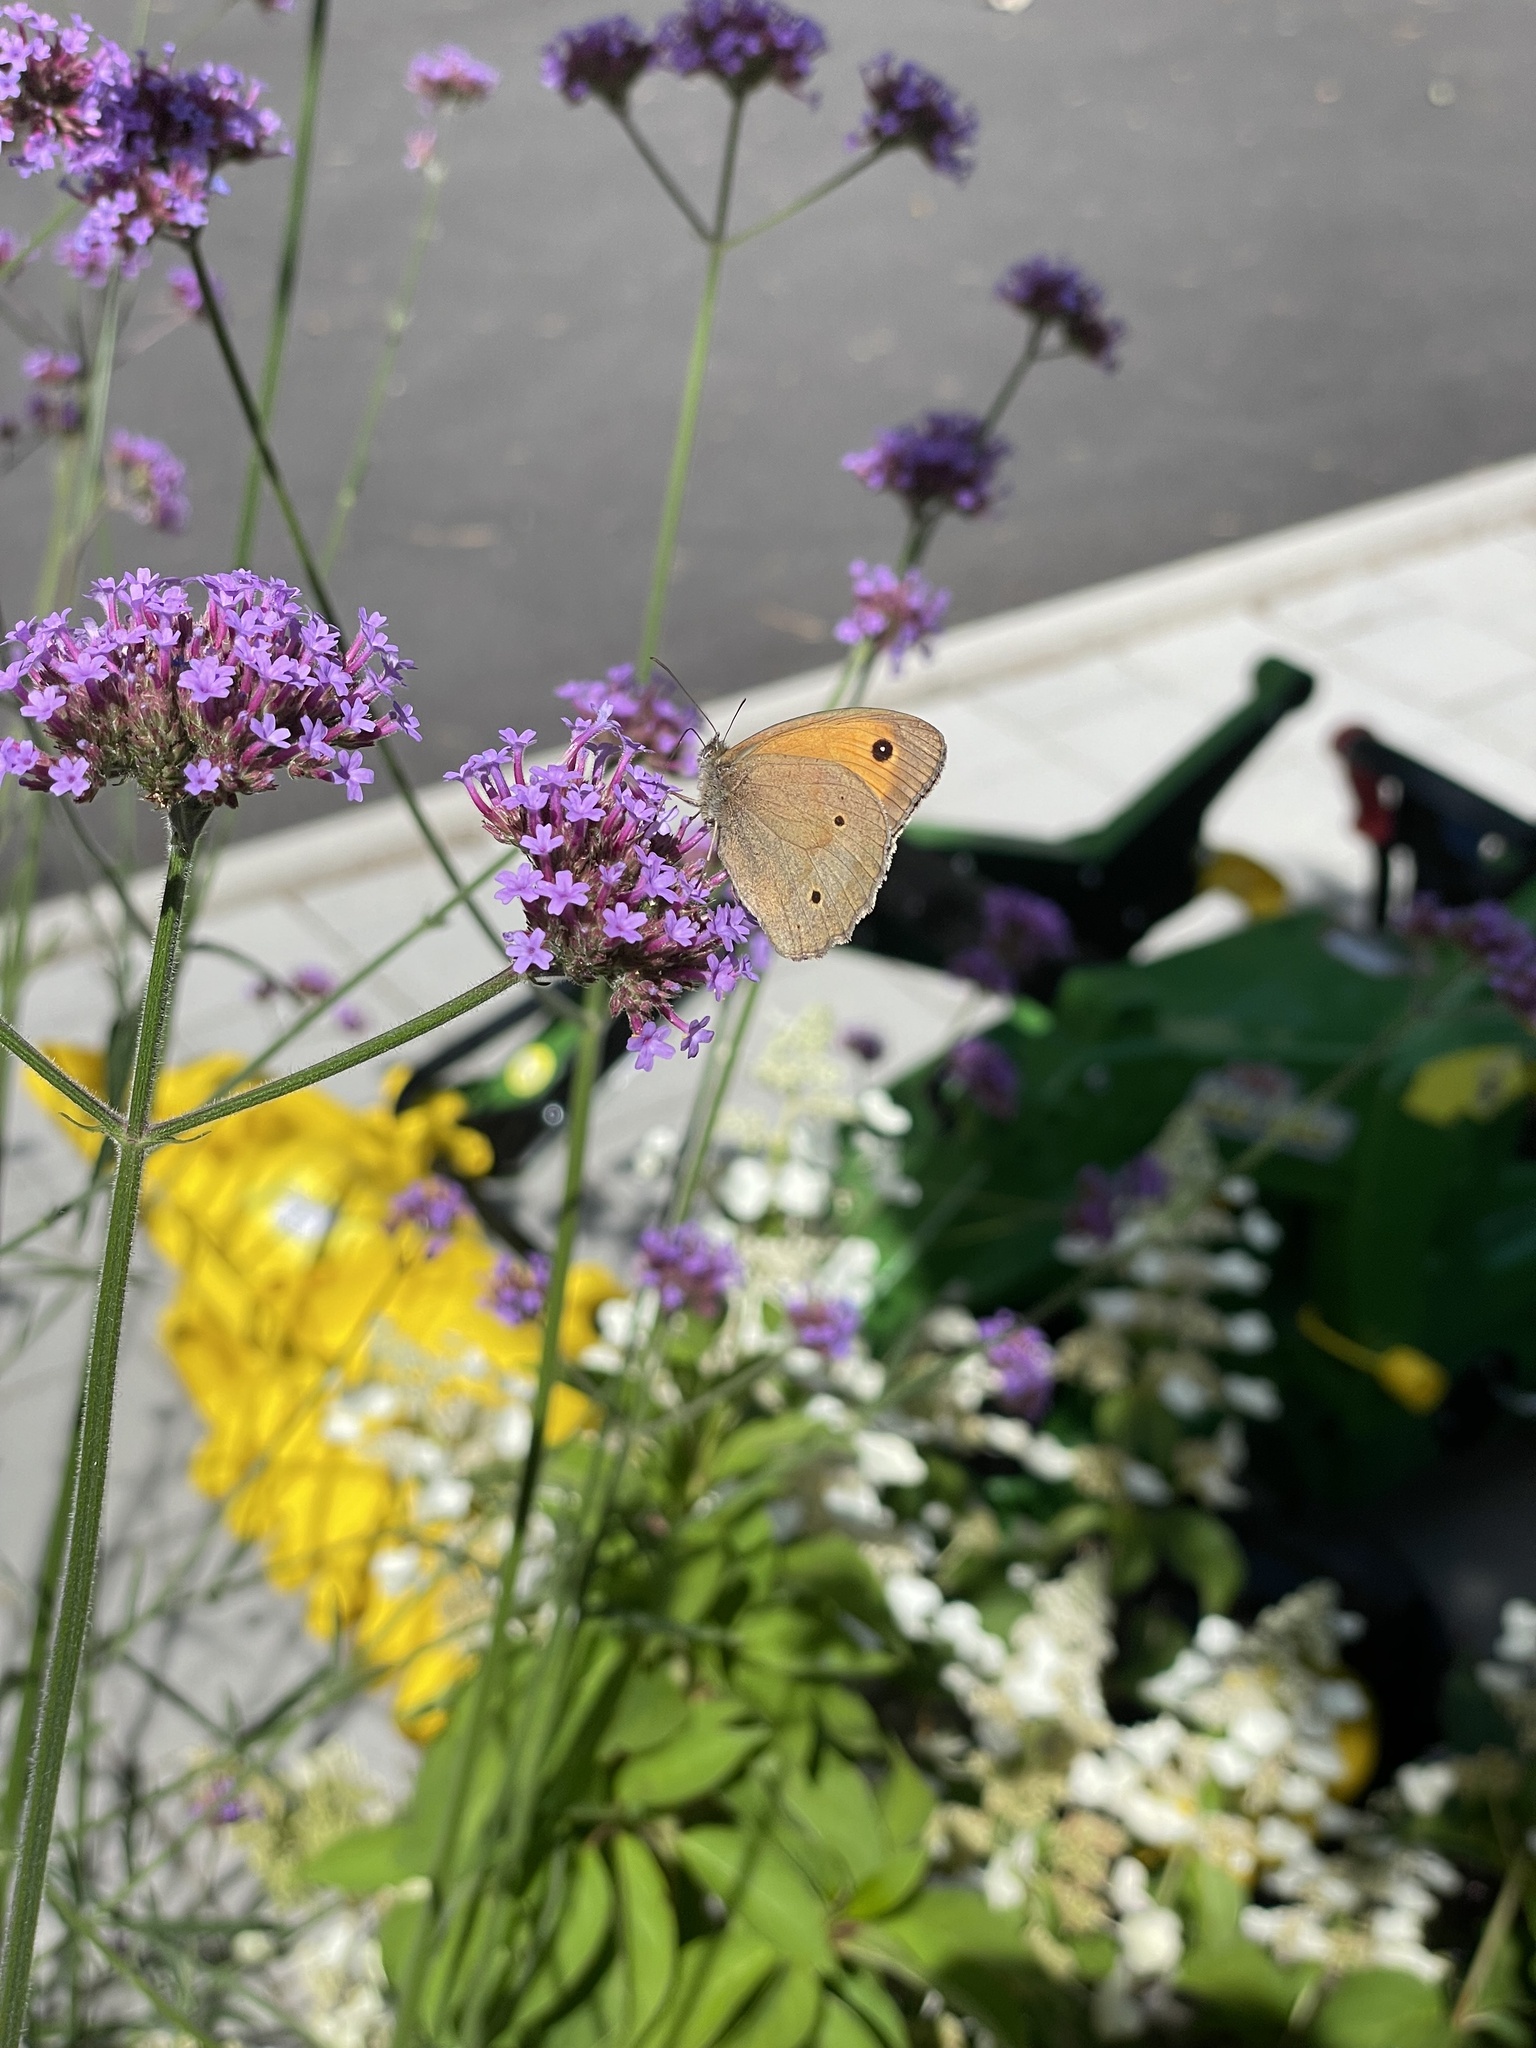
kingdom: Animalia
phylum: Arthropoda
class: Insecta
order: Lepidoptera
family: Nymphalidae
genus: Maniola
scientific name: Maniola jurtina
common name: Meadow brown
